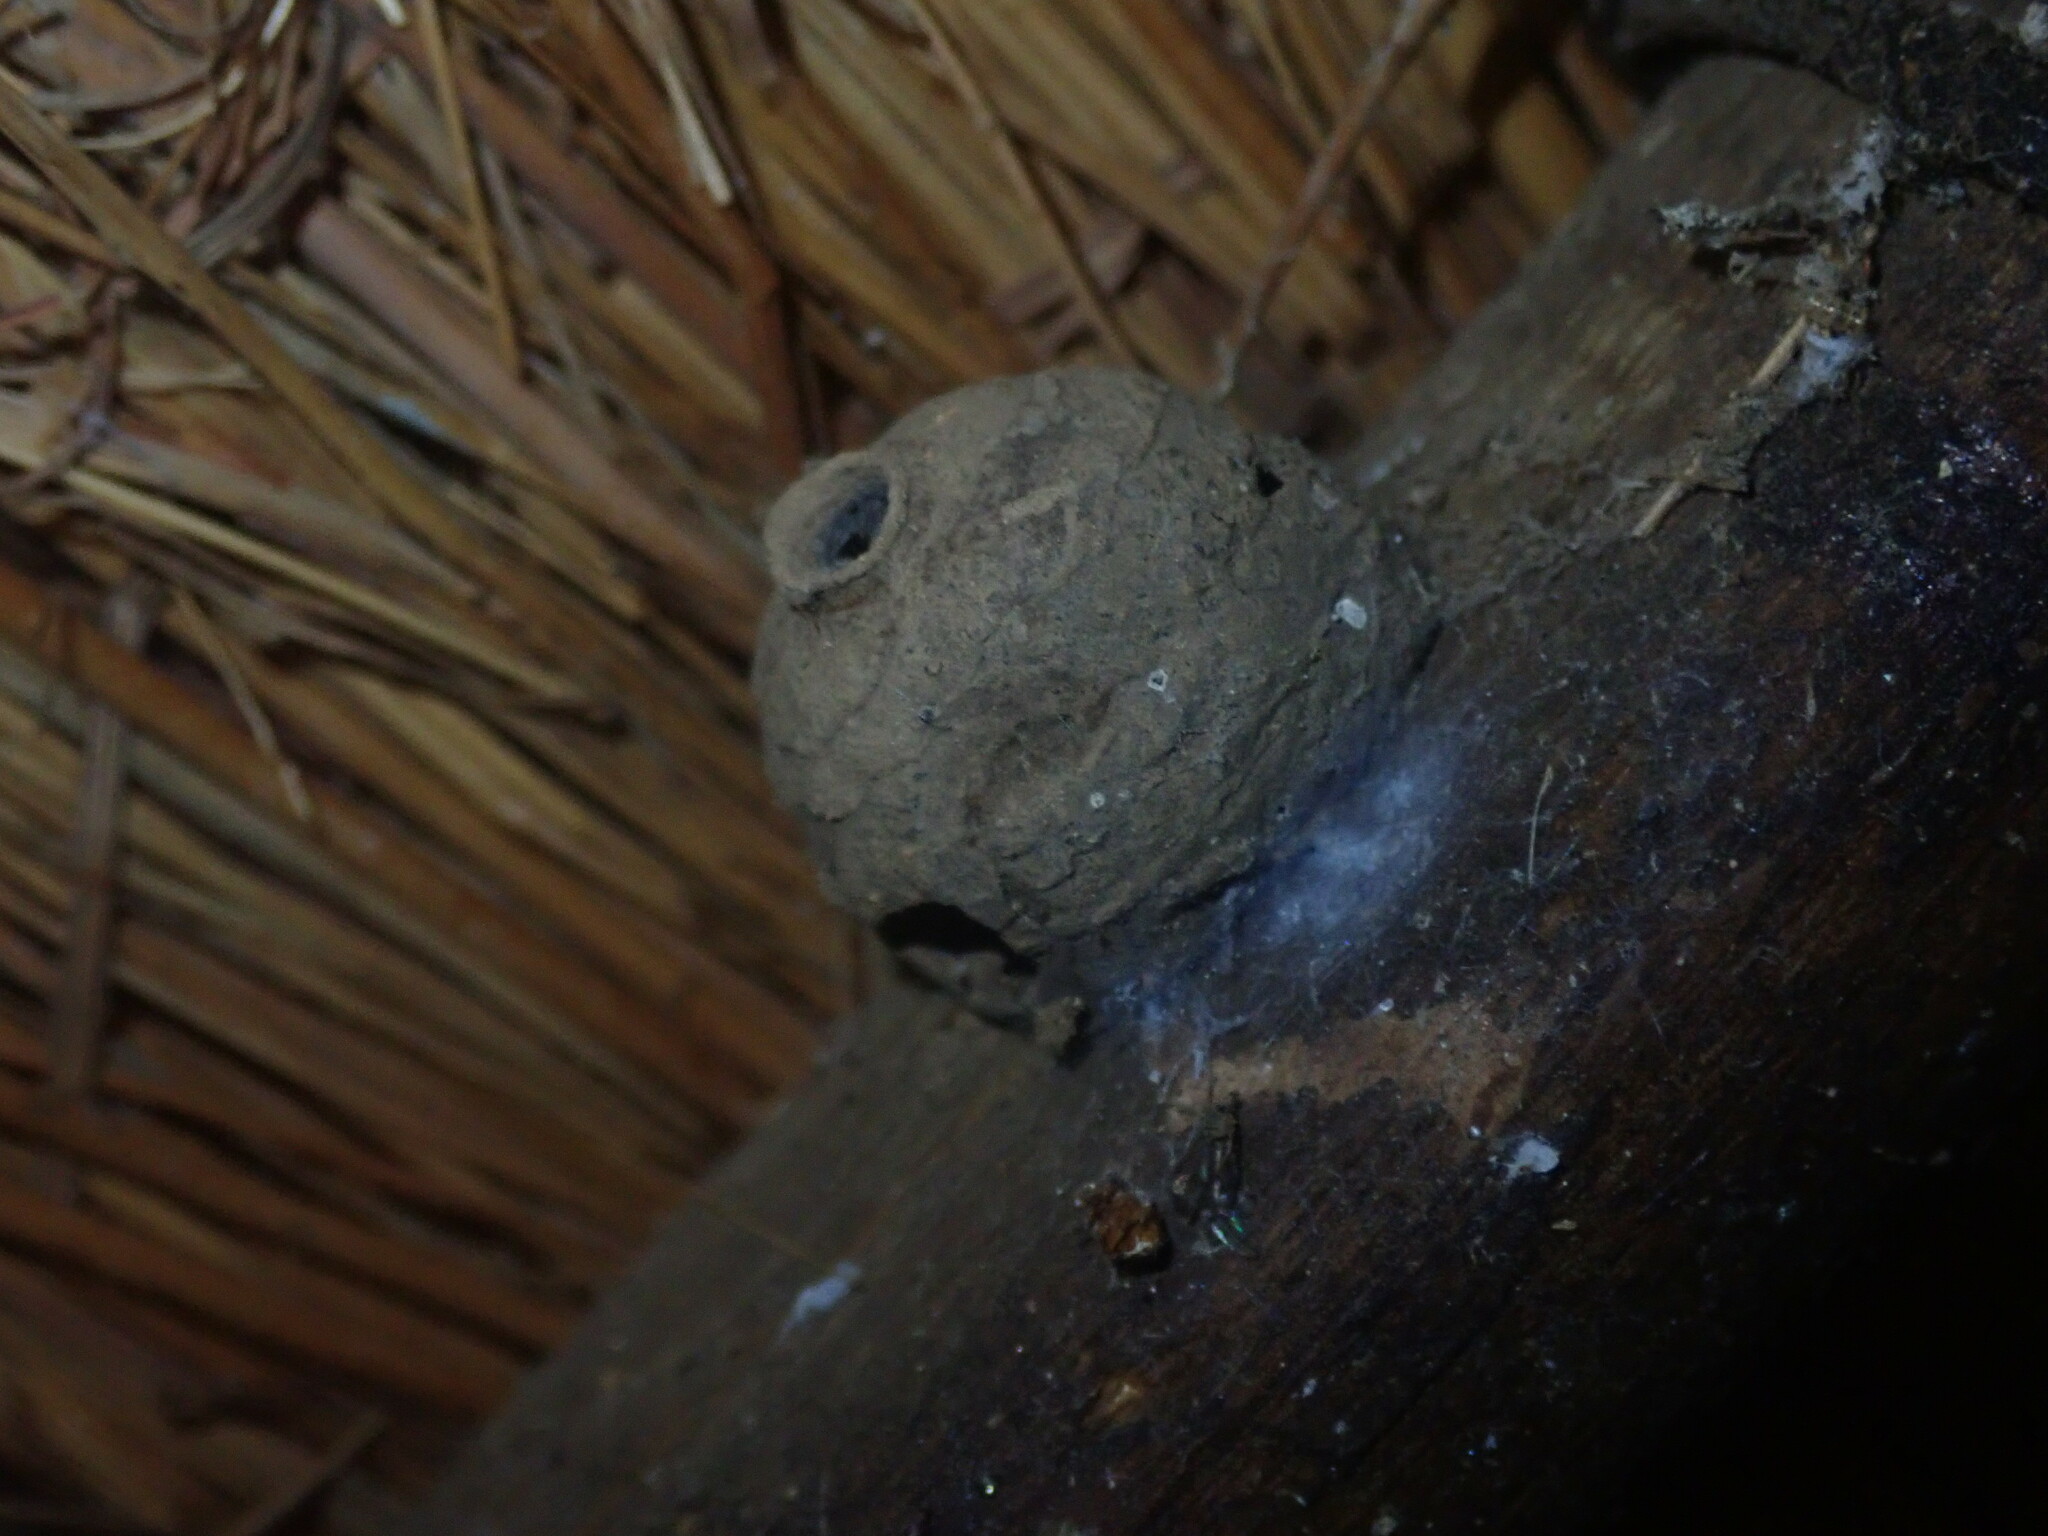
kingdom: Animalia
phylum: Arthropoda
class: Insecta
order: Hymenoptera
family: Eumenidae
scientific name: Eumenidae
